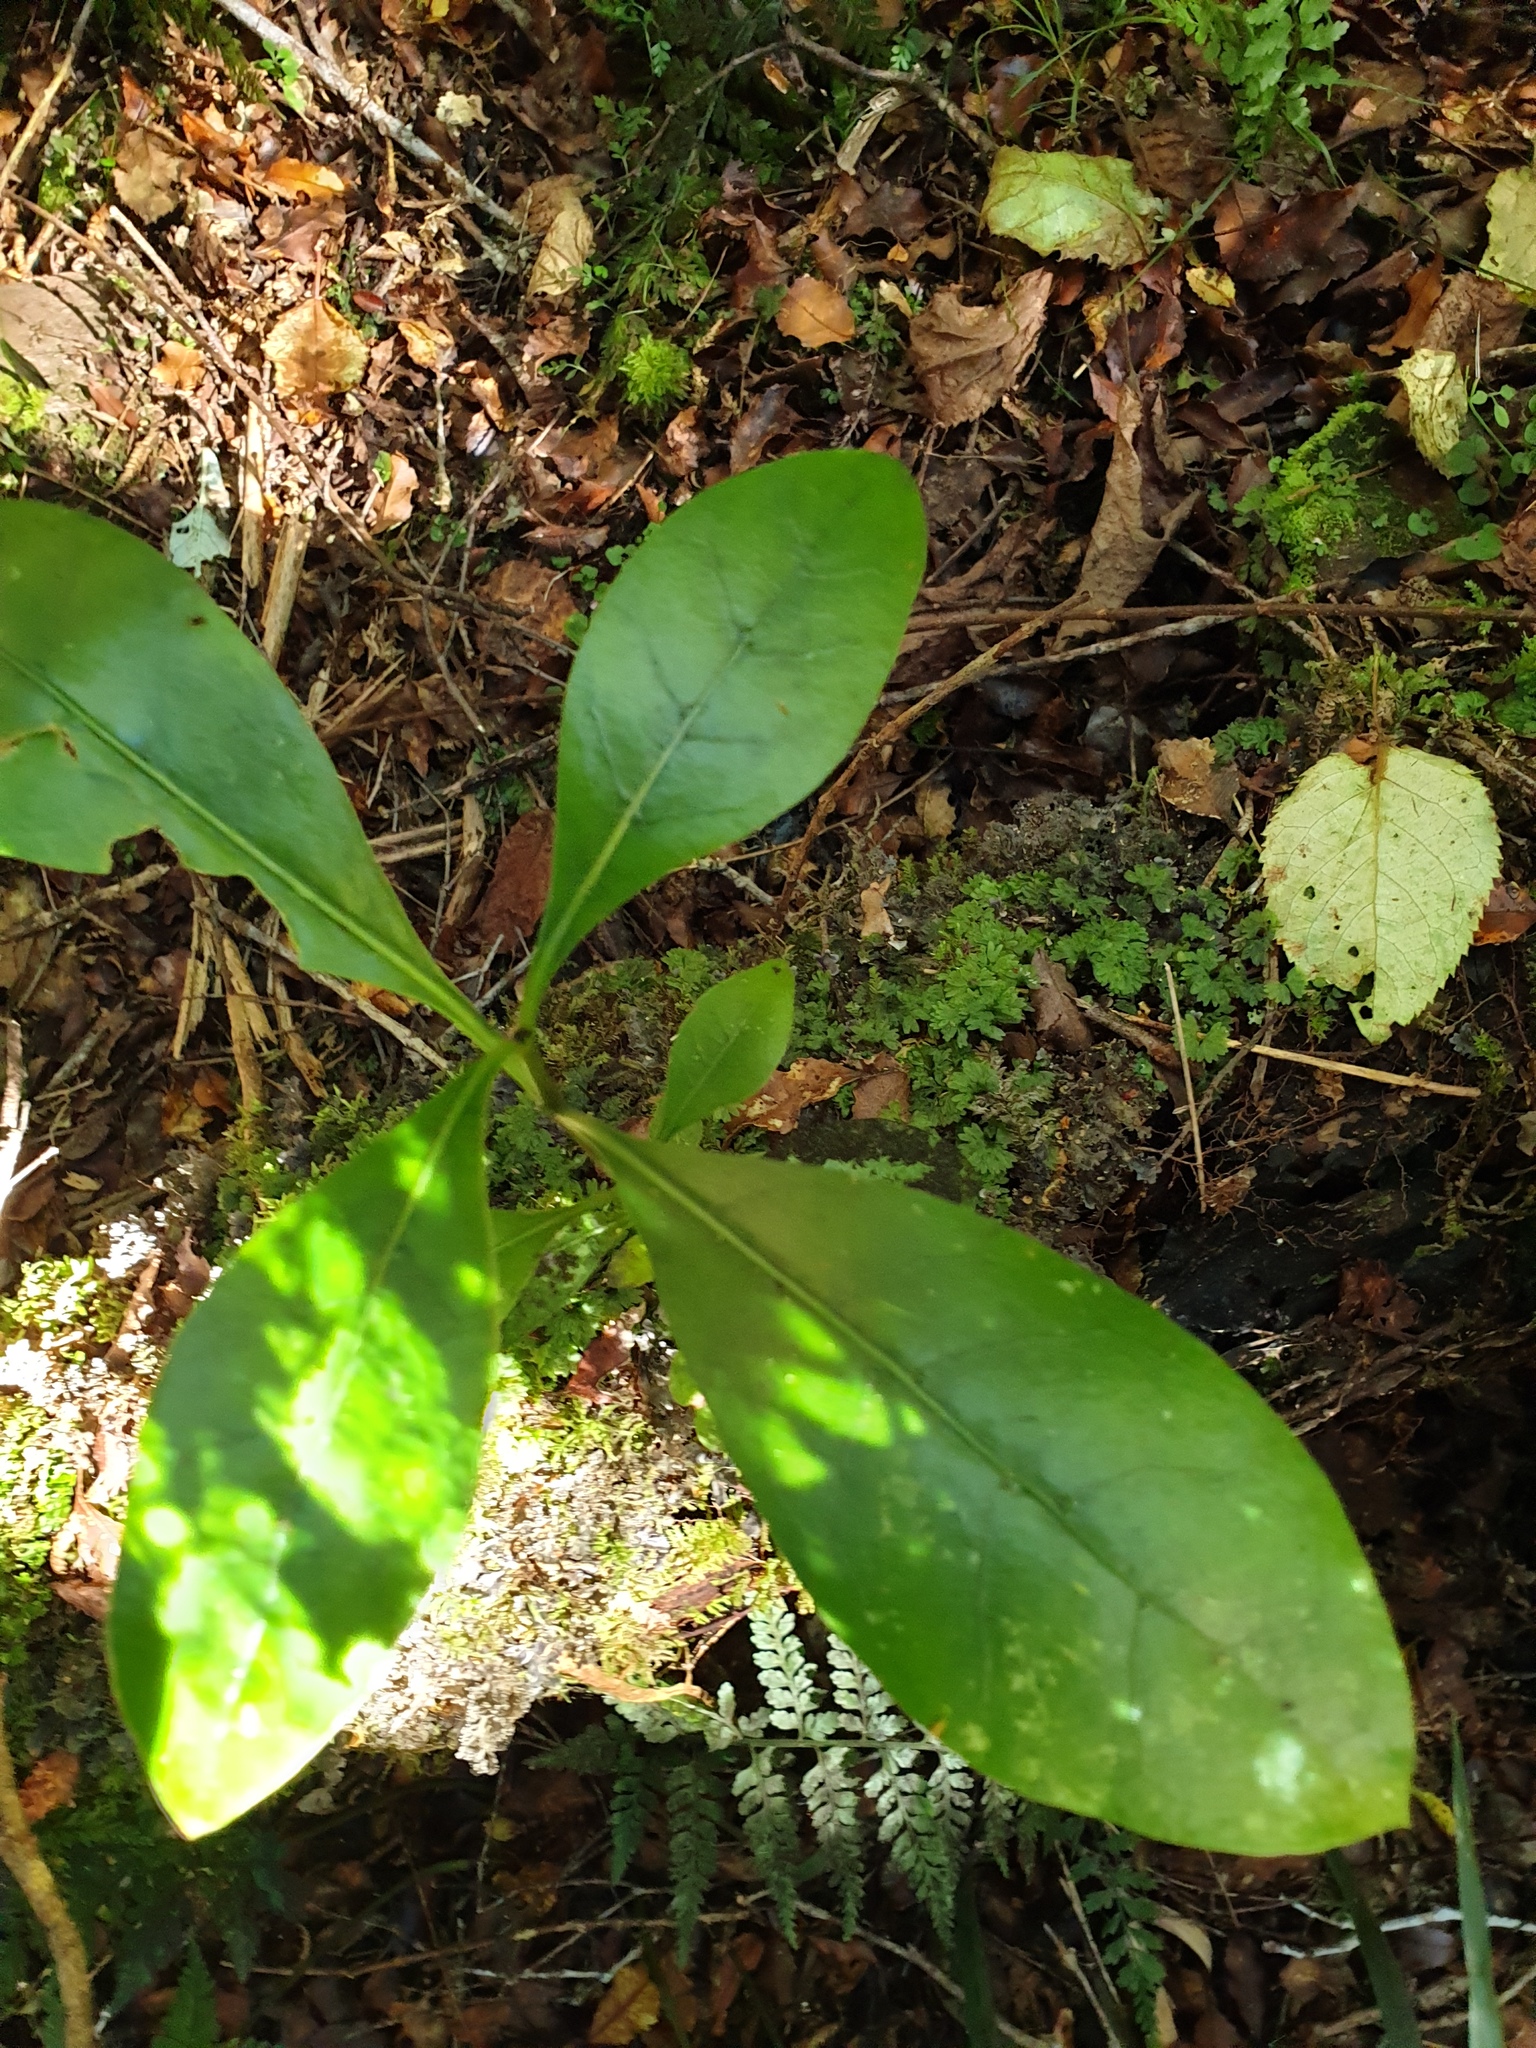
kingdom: Plantae
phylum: Tracheophyta
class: Magnoliopsida
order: Gentianales
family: Rubiaceae
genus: Coprosma
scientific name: Coprosma lucida
